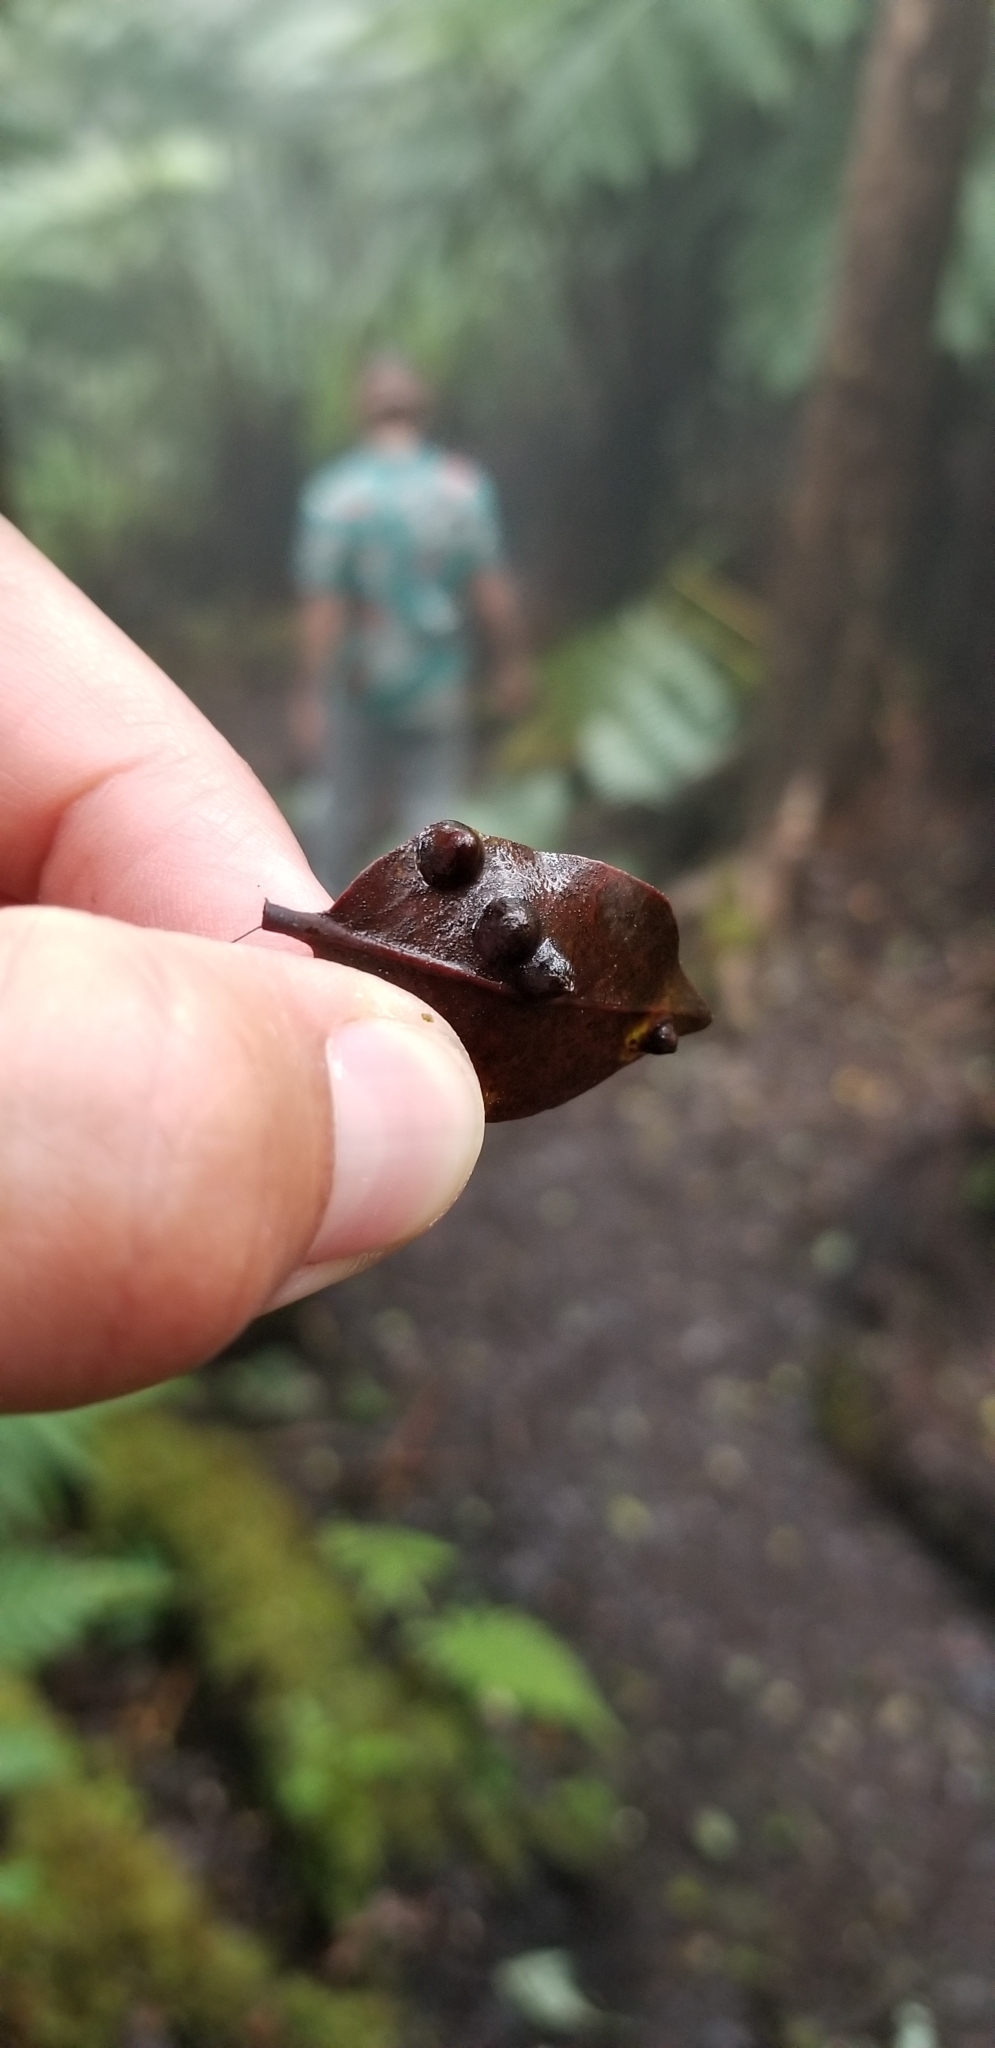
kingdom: Animalia
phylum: Arthropoda
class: Insecta
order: Hemiptera
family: Triozidae
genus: Pariaconus
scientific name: Pariaconus pyramidalis
